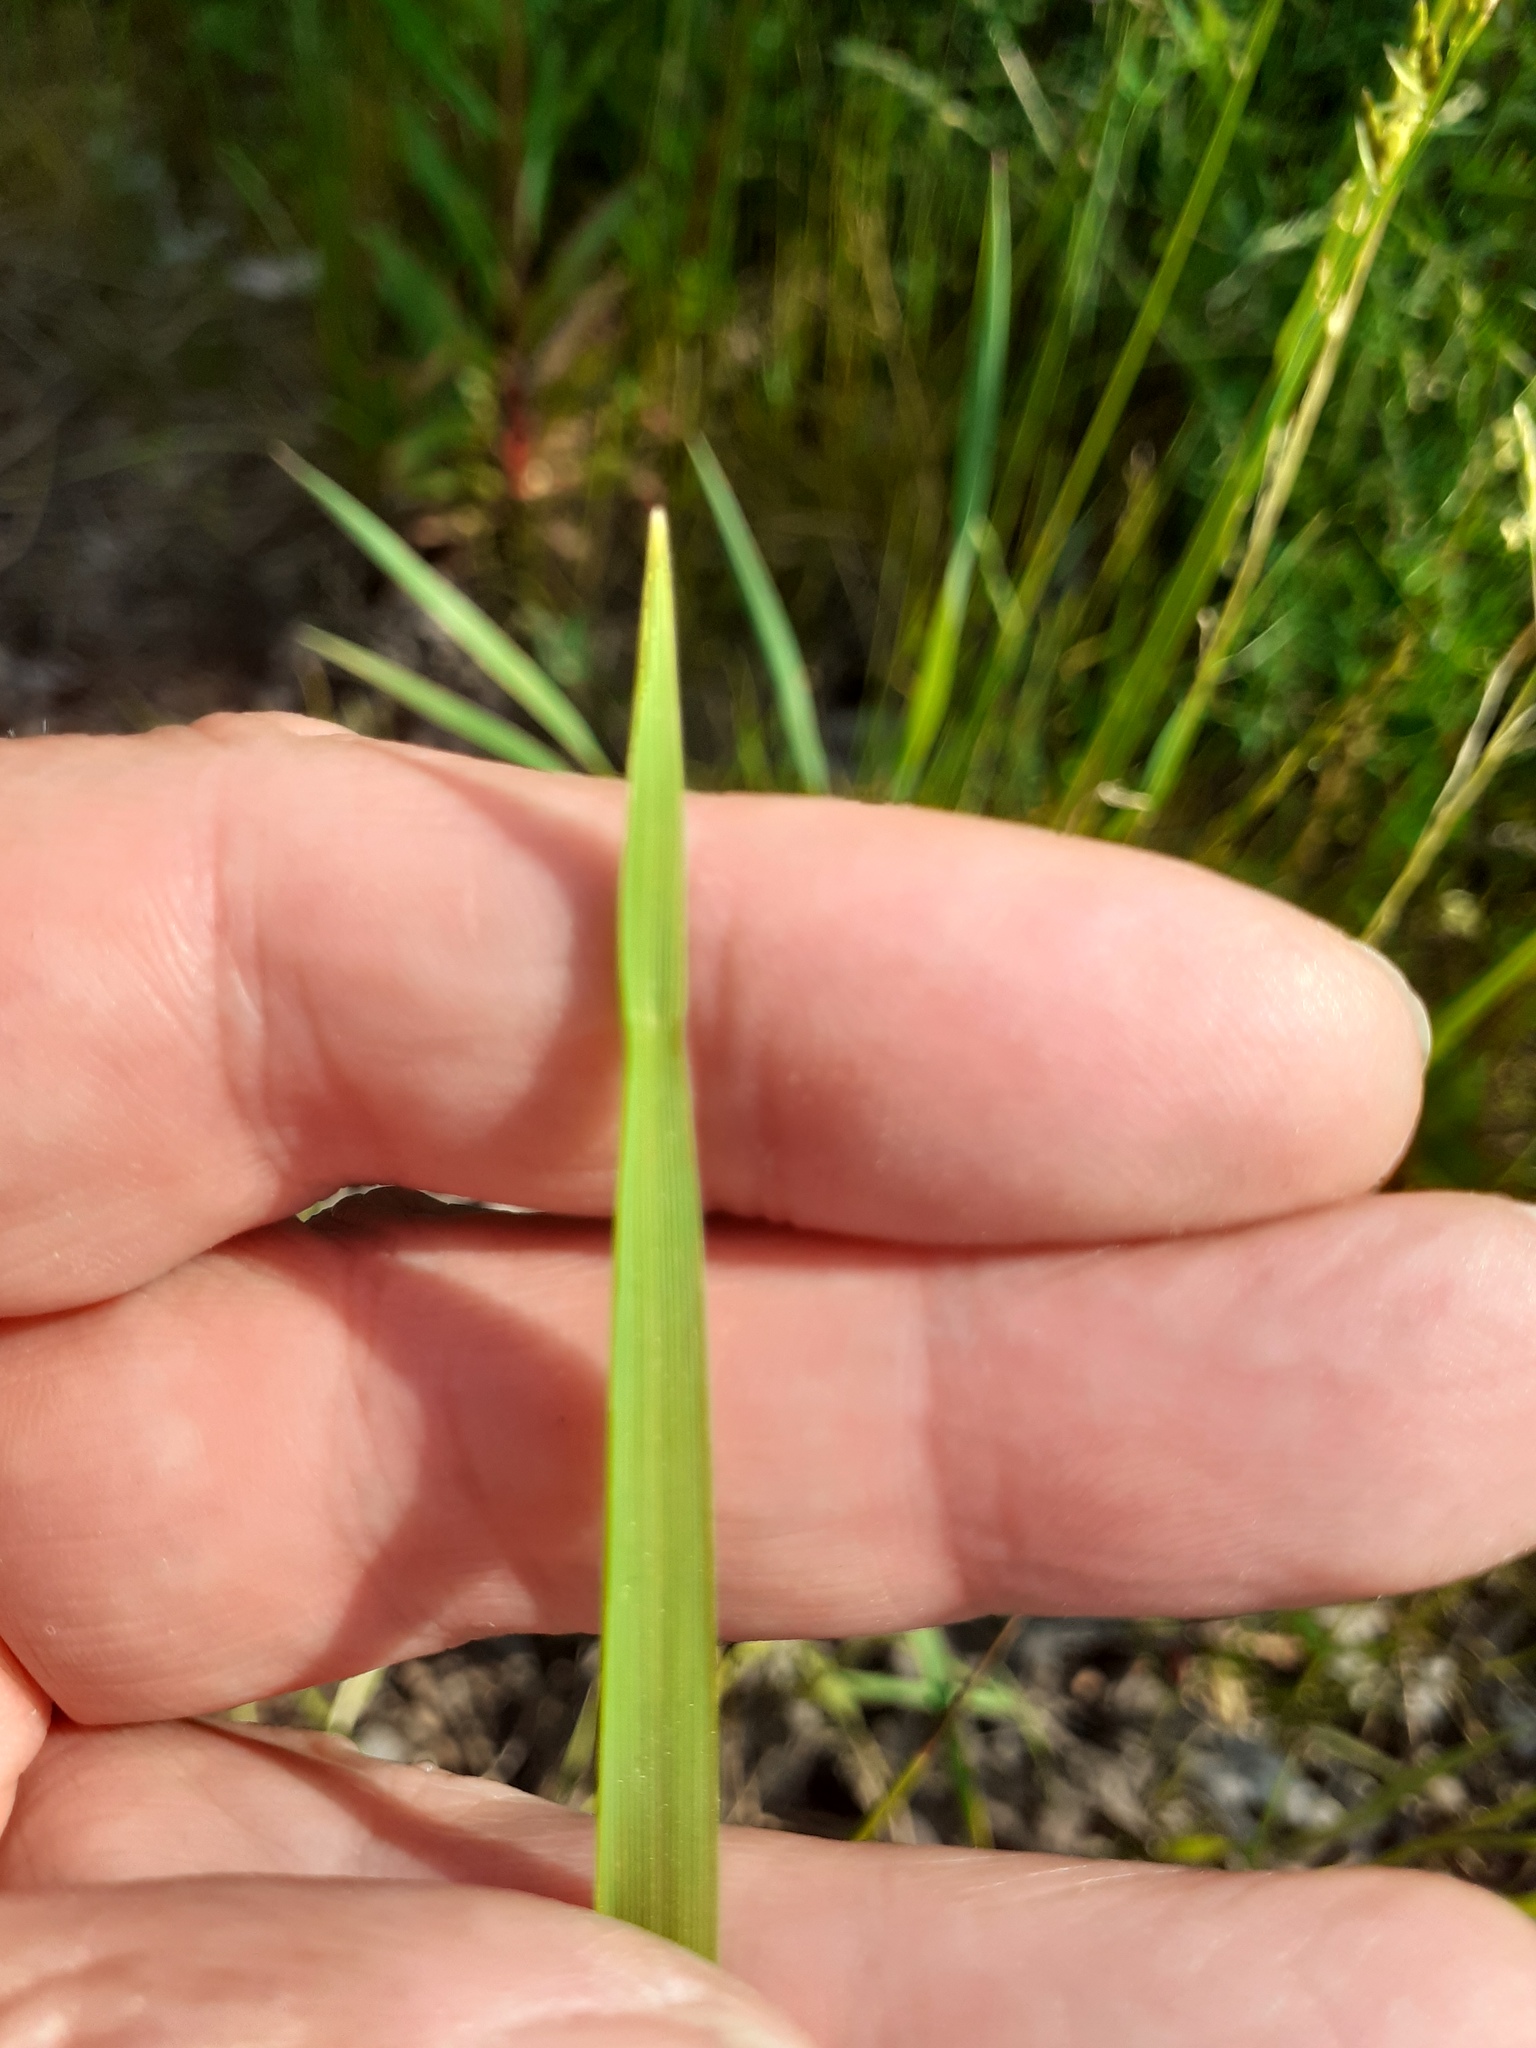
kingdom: Plantae
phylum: Tracheophyta
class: Liliopsida
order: Poales
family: Poaceae
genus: Glyceria
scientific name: Glyceria fluitans
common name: Floating sweet-grass
